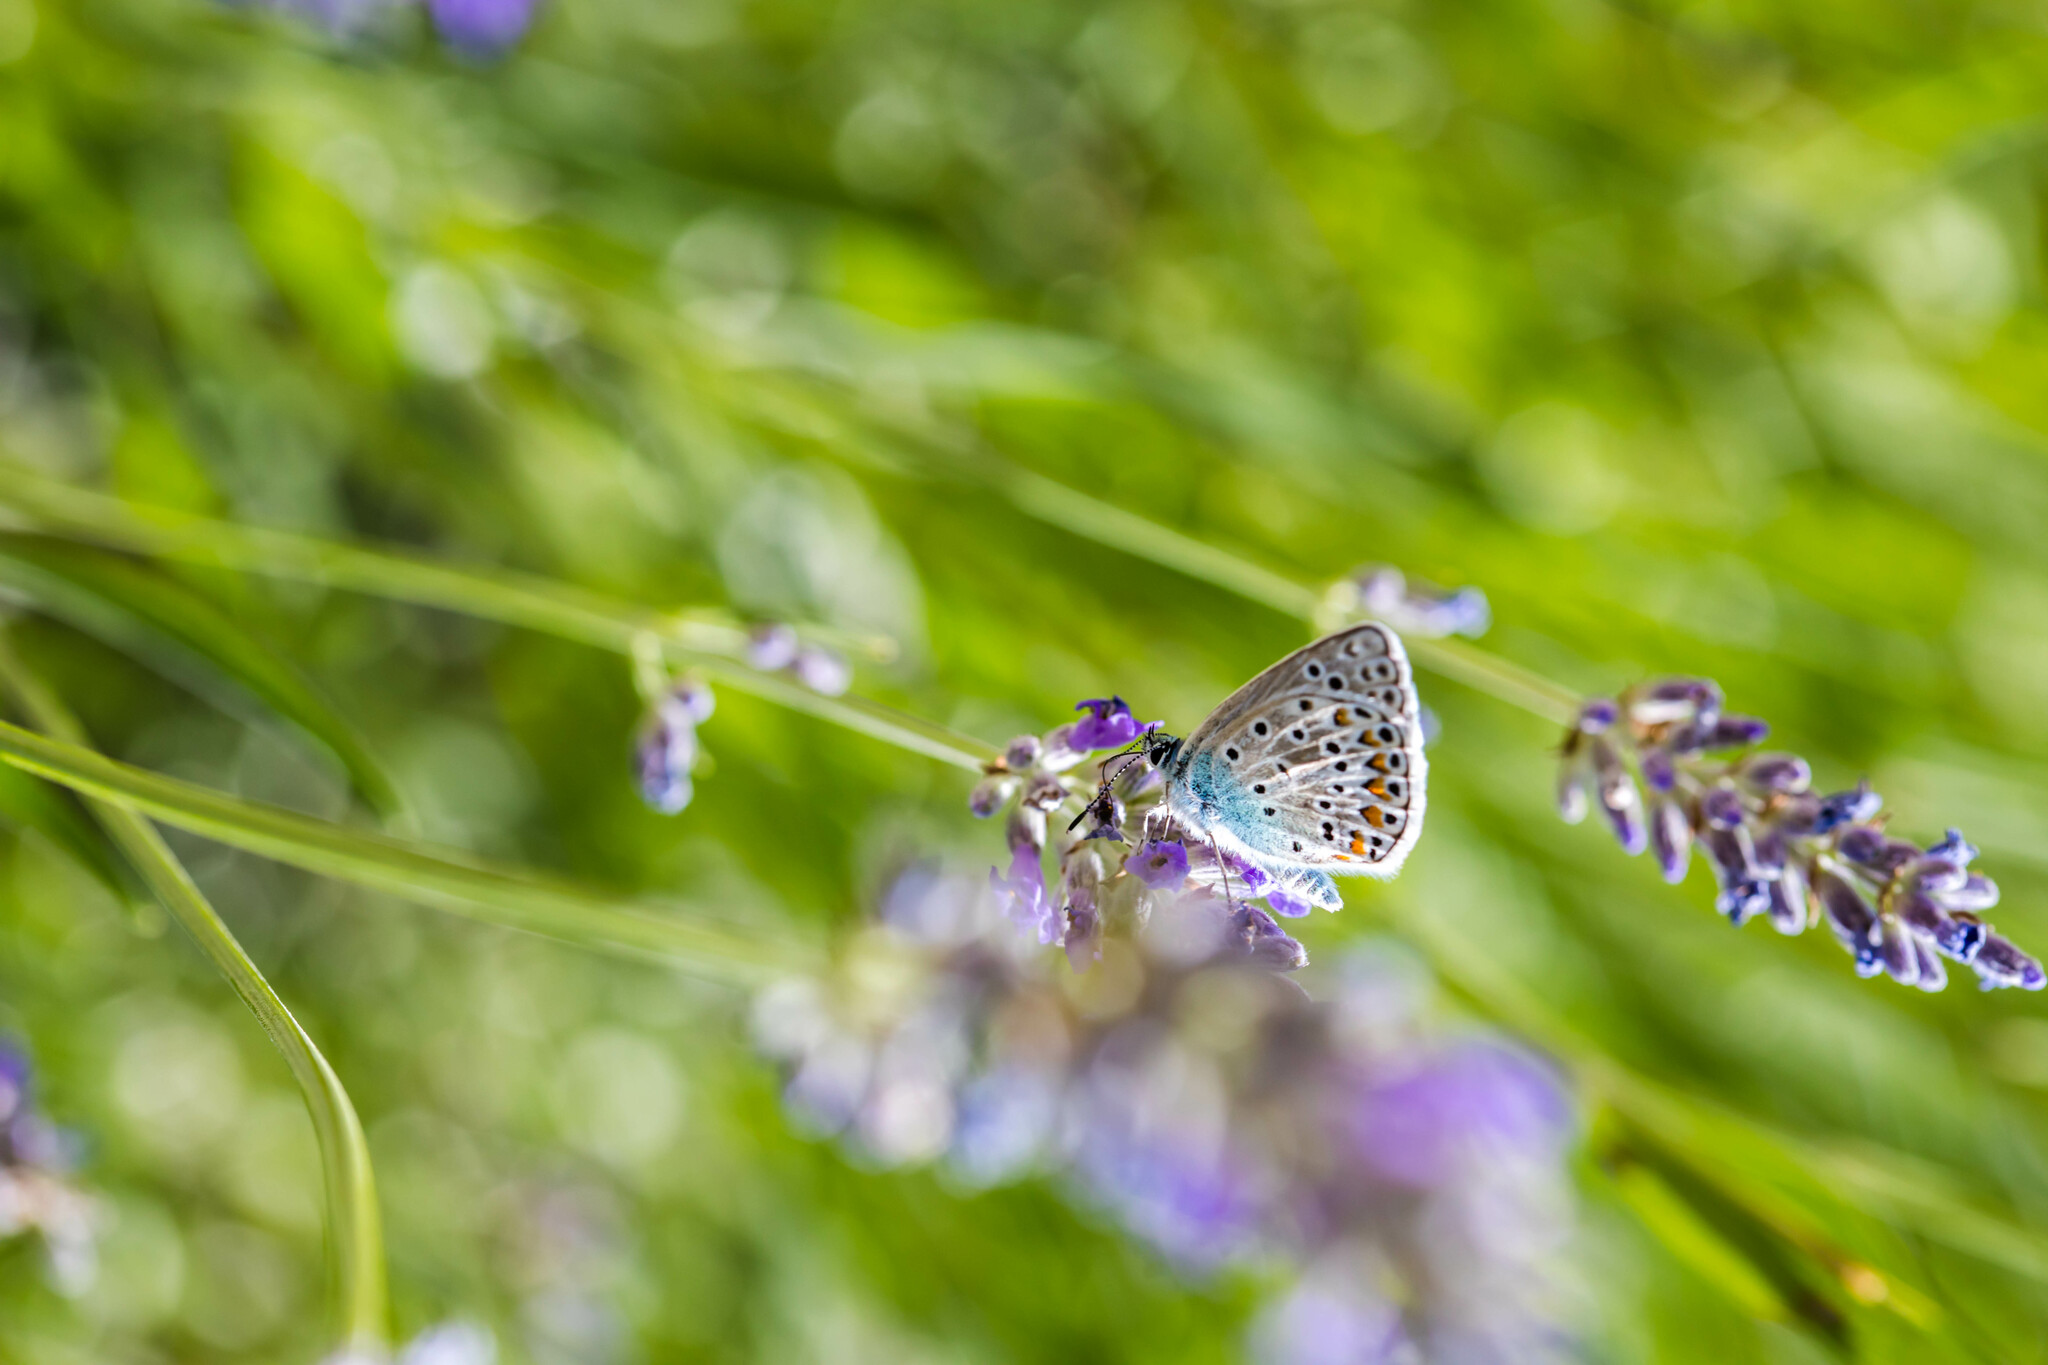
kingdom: Animalia
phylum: Arthropoda
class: Insecta
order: Lepidoptera
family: Lycaenidae
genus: Plebicula
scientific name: Plebicula escheri
